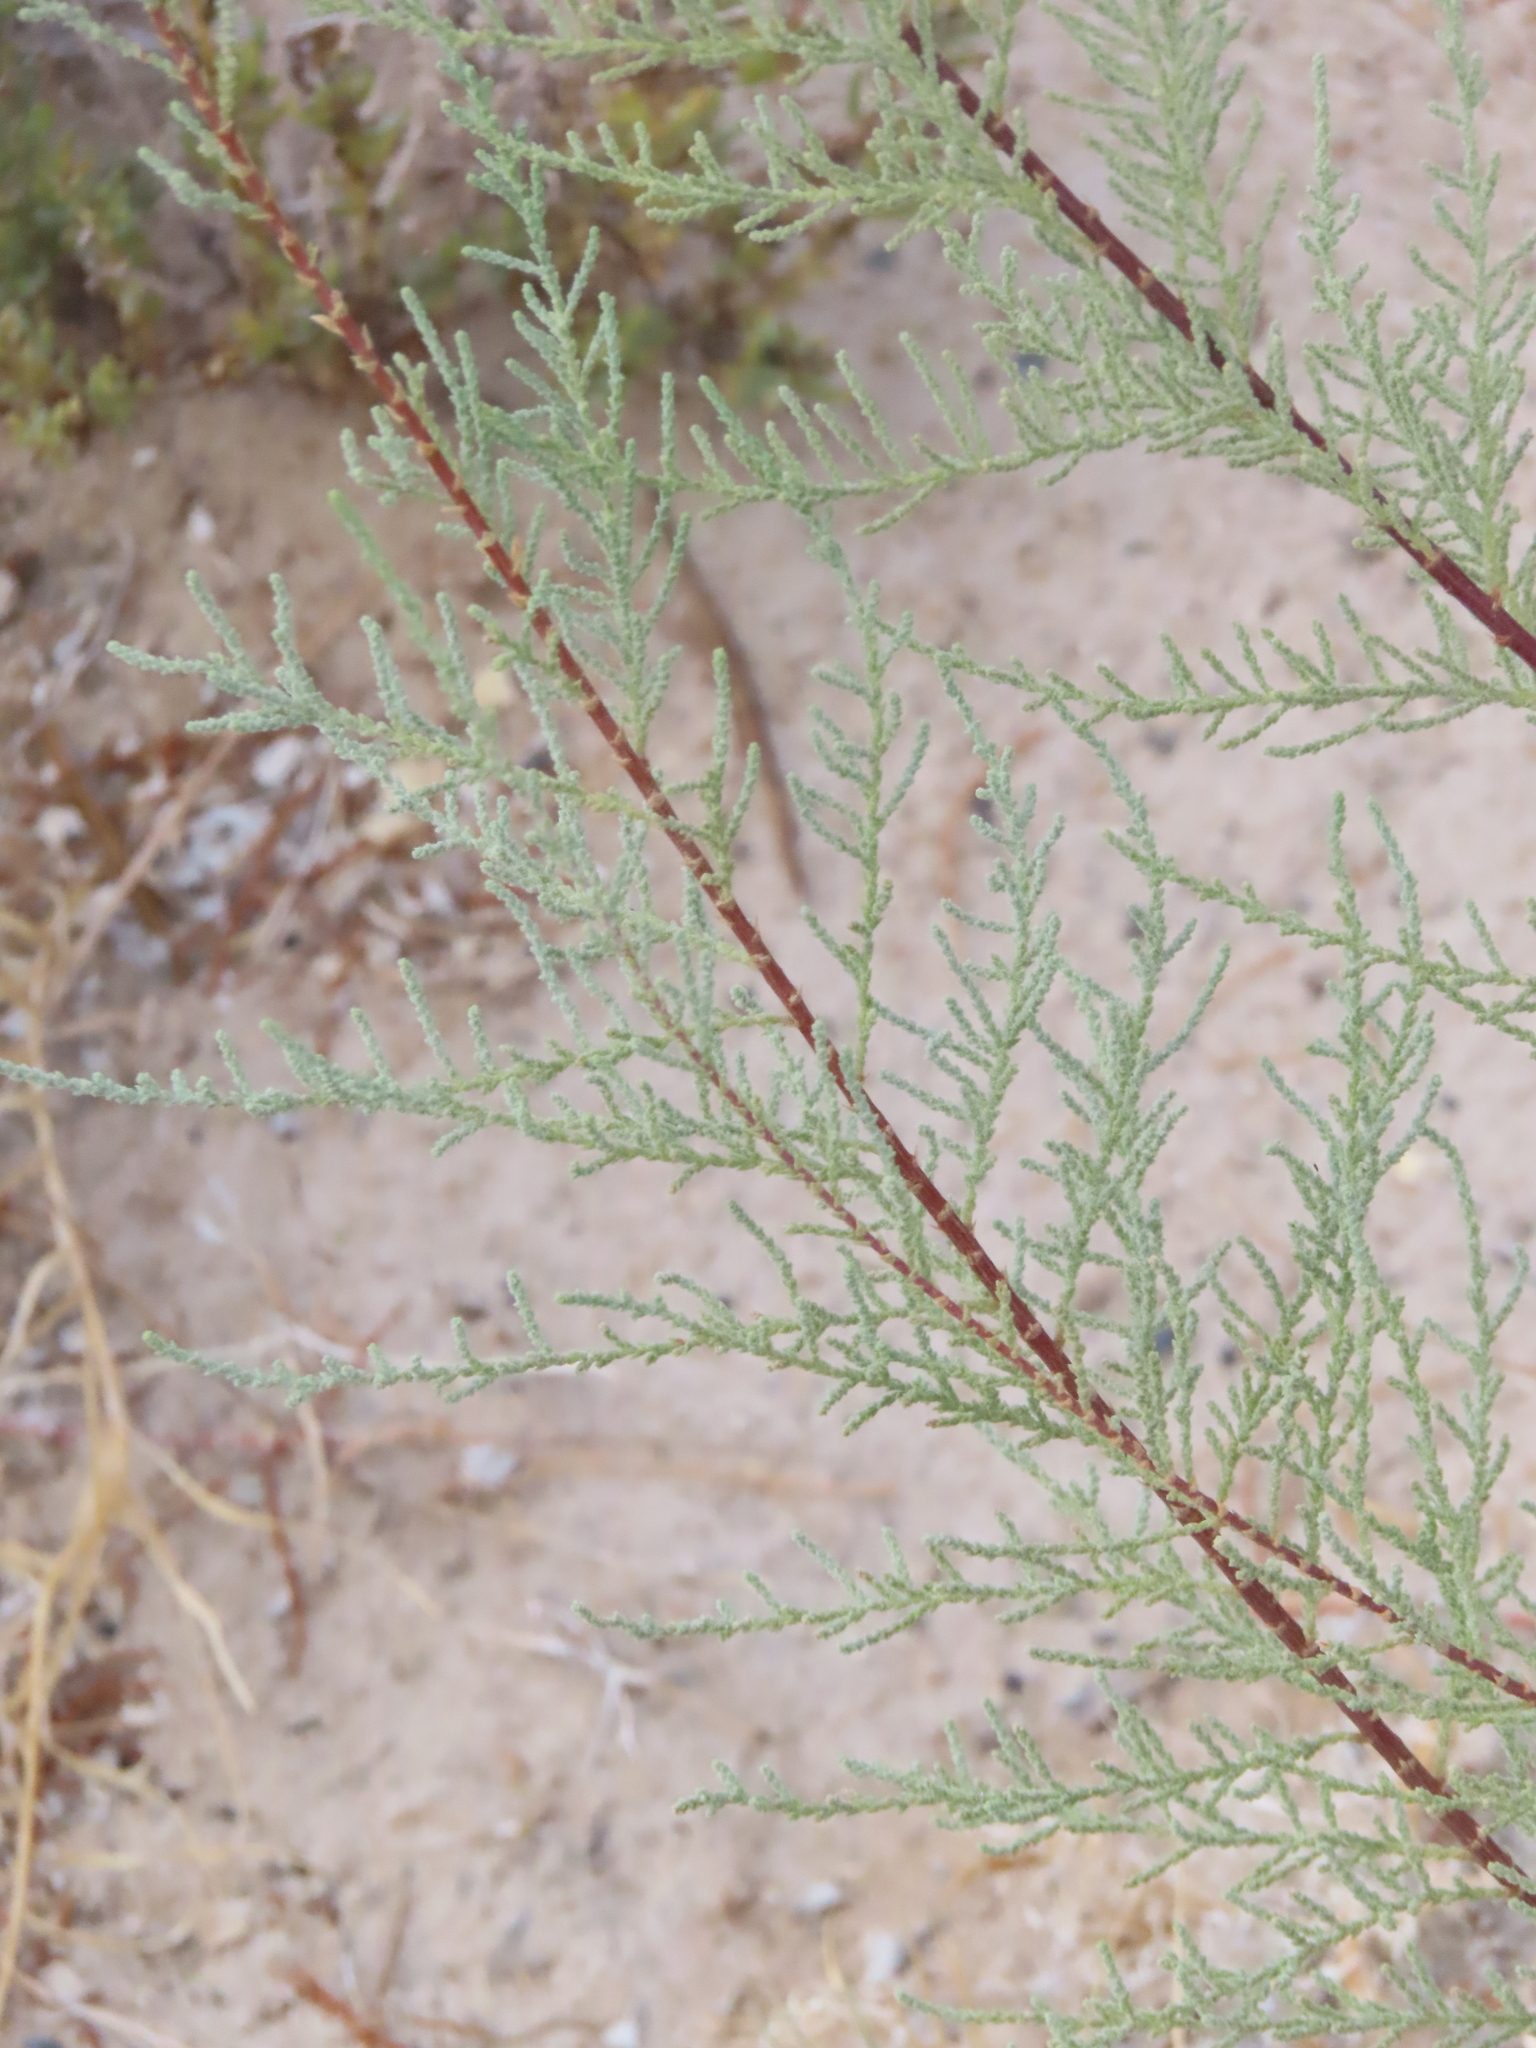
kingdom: Plantae
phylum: Tracheophyta
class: Magnoliopsida
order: Caryophyllales
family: Tamaricaceae
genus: Tamarix
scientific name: Tamarix
